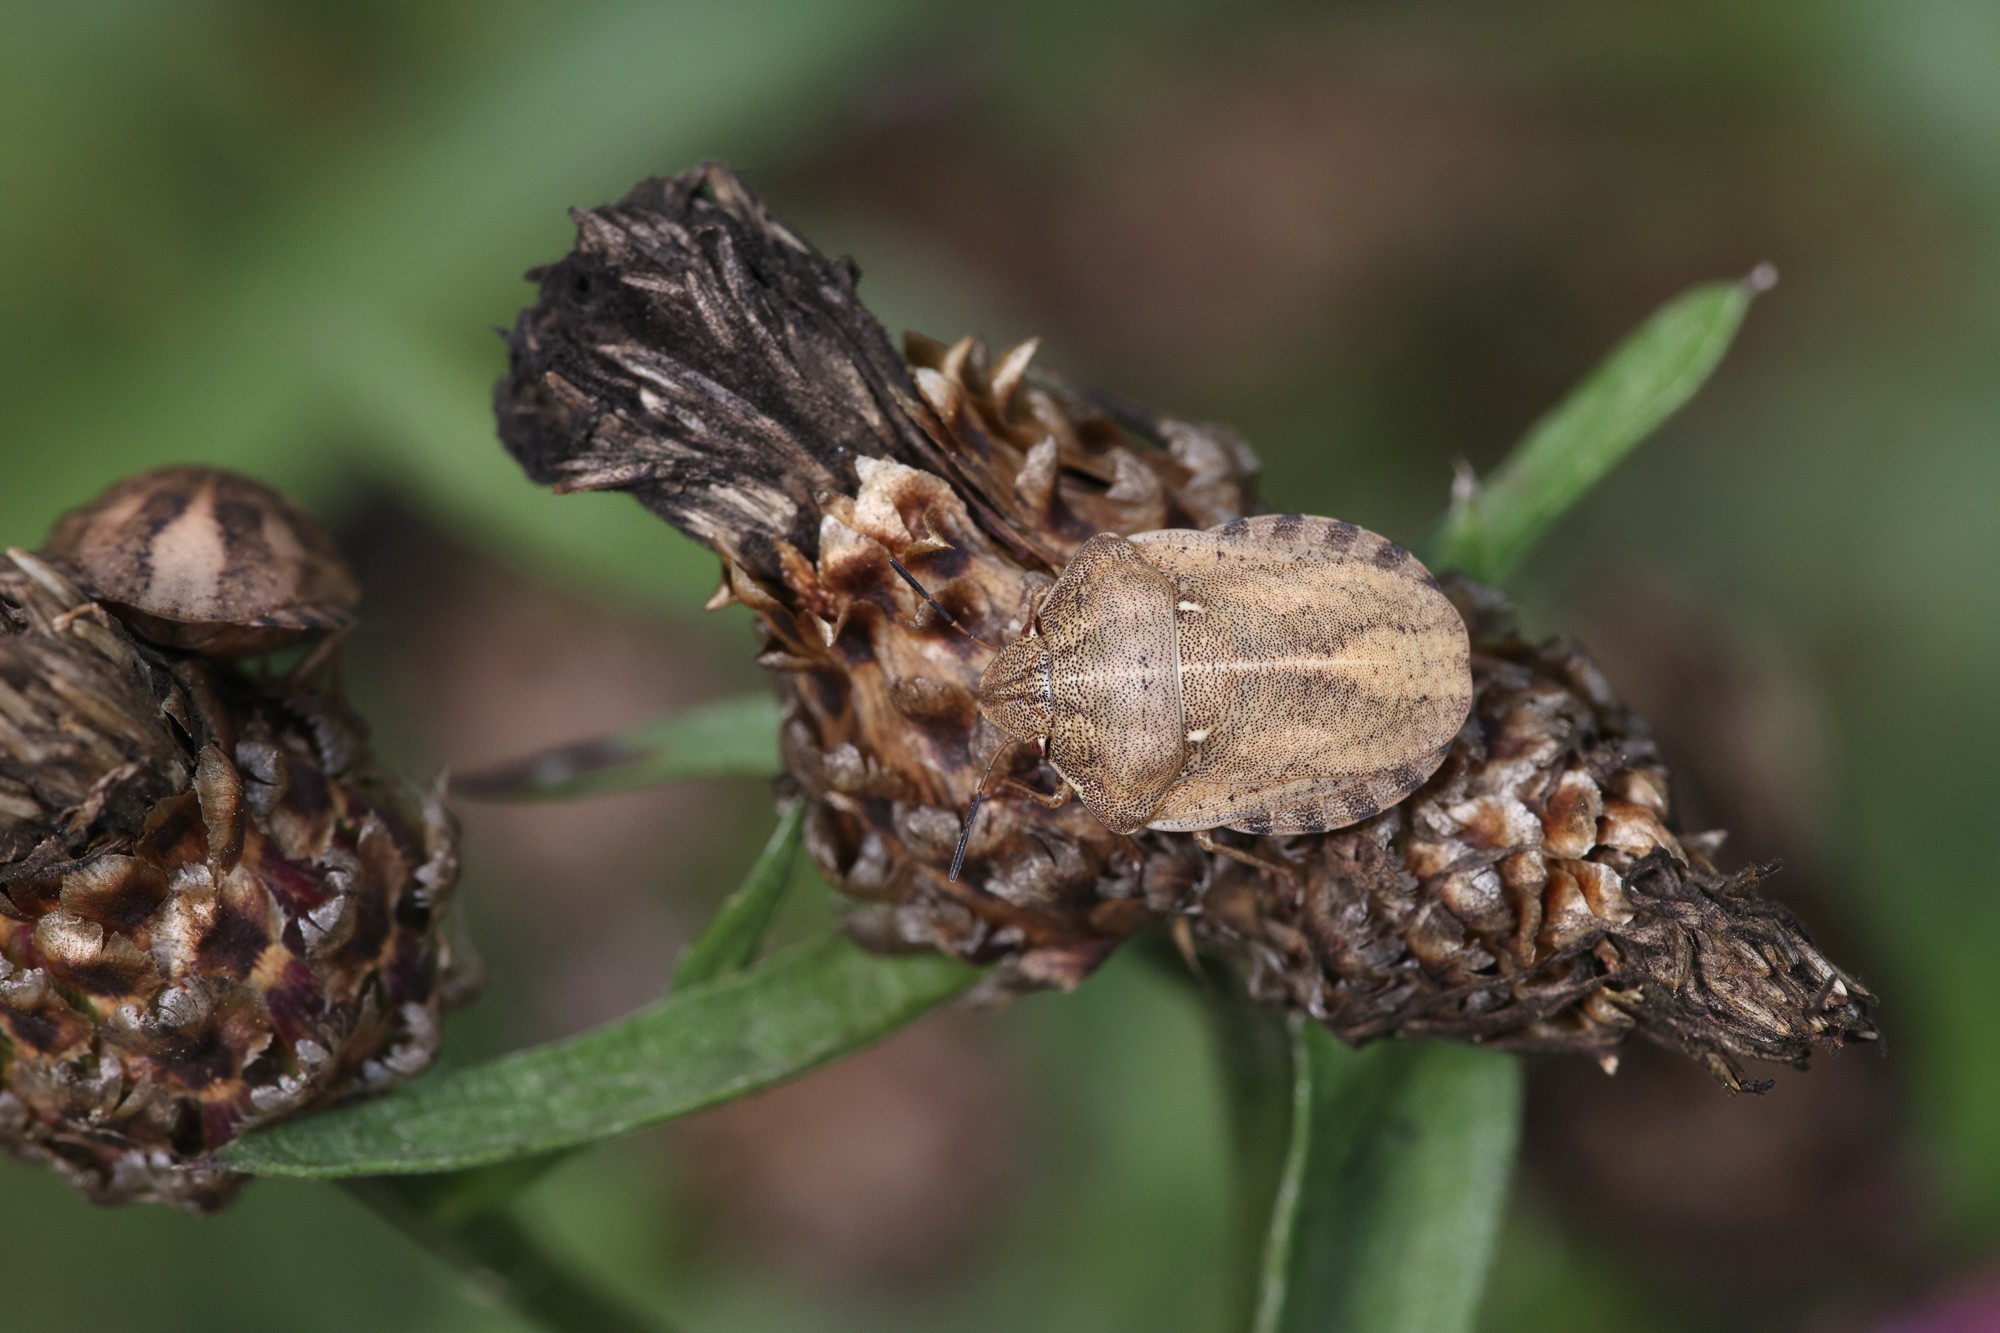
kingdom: Animalia
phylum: Arthropoda
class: Insecta
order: Hemiptera
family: Scutelleridae
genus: Eurygaster
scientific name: Eurygaster testudinaria
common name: Tortoise bug
